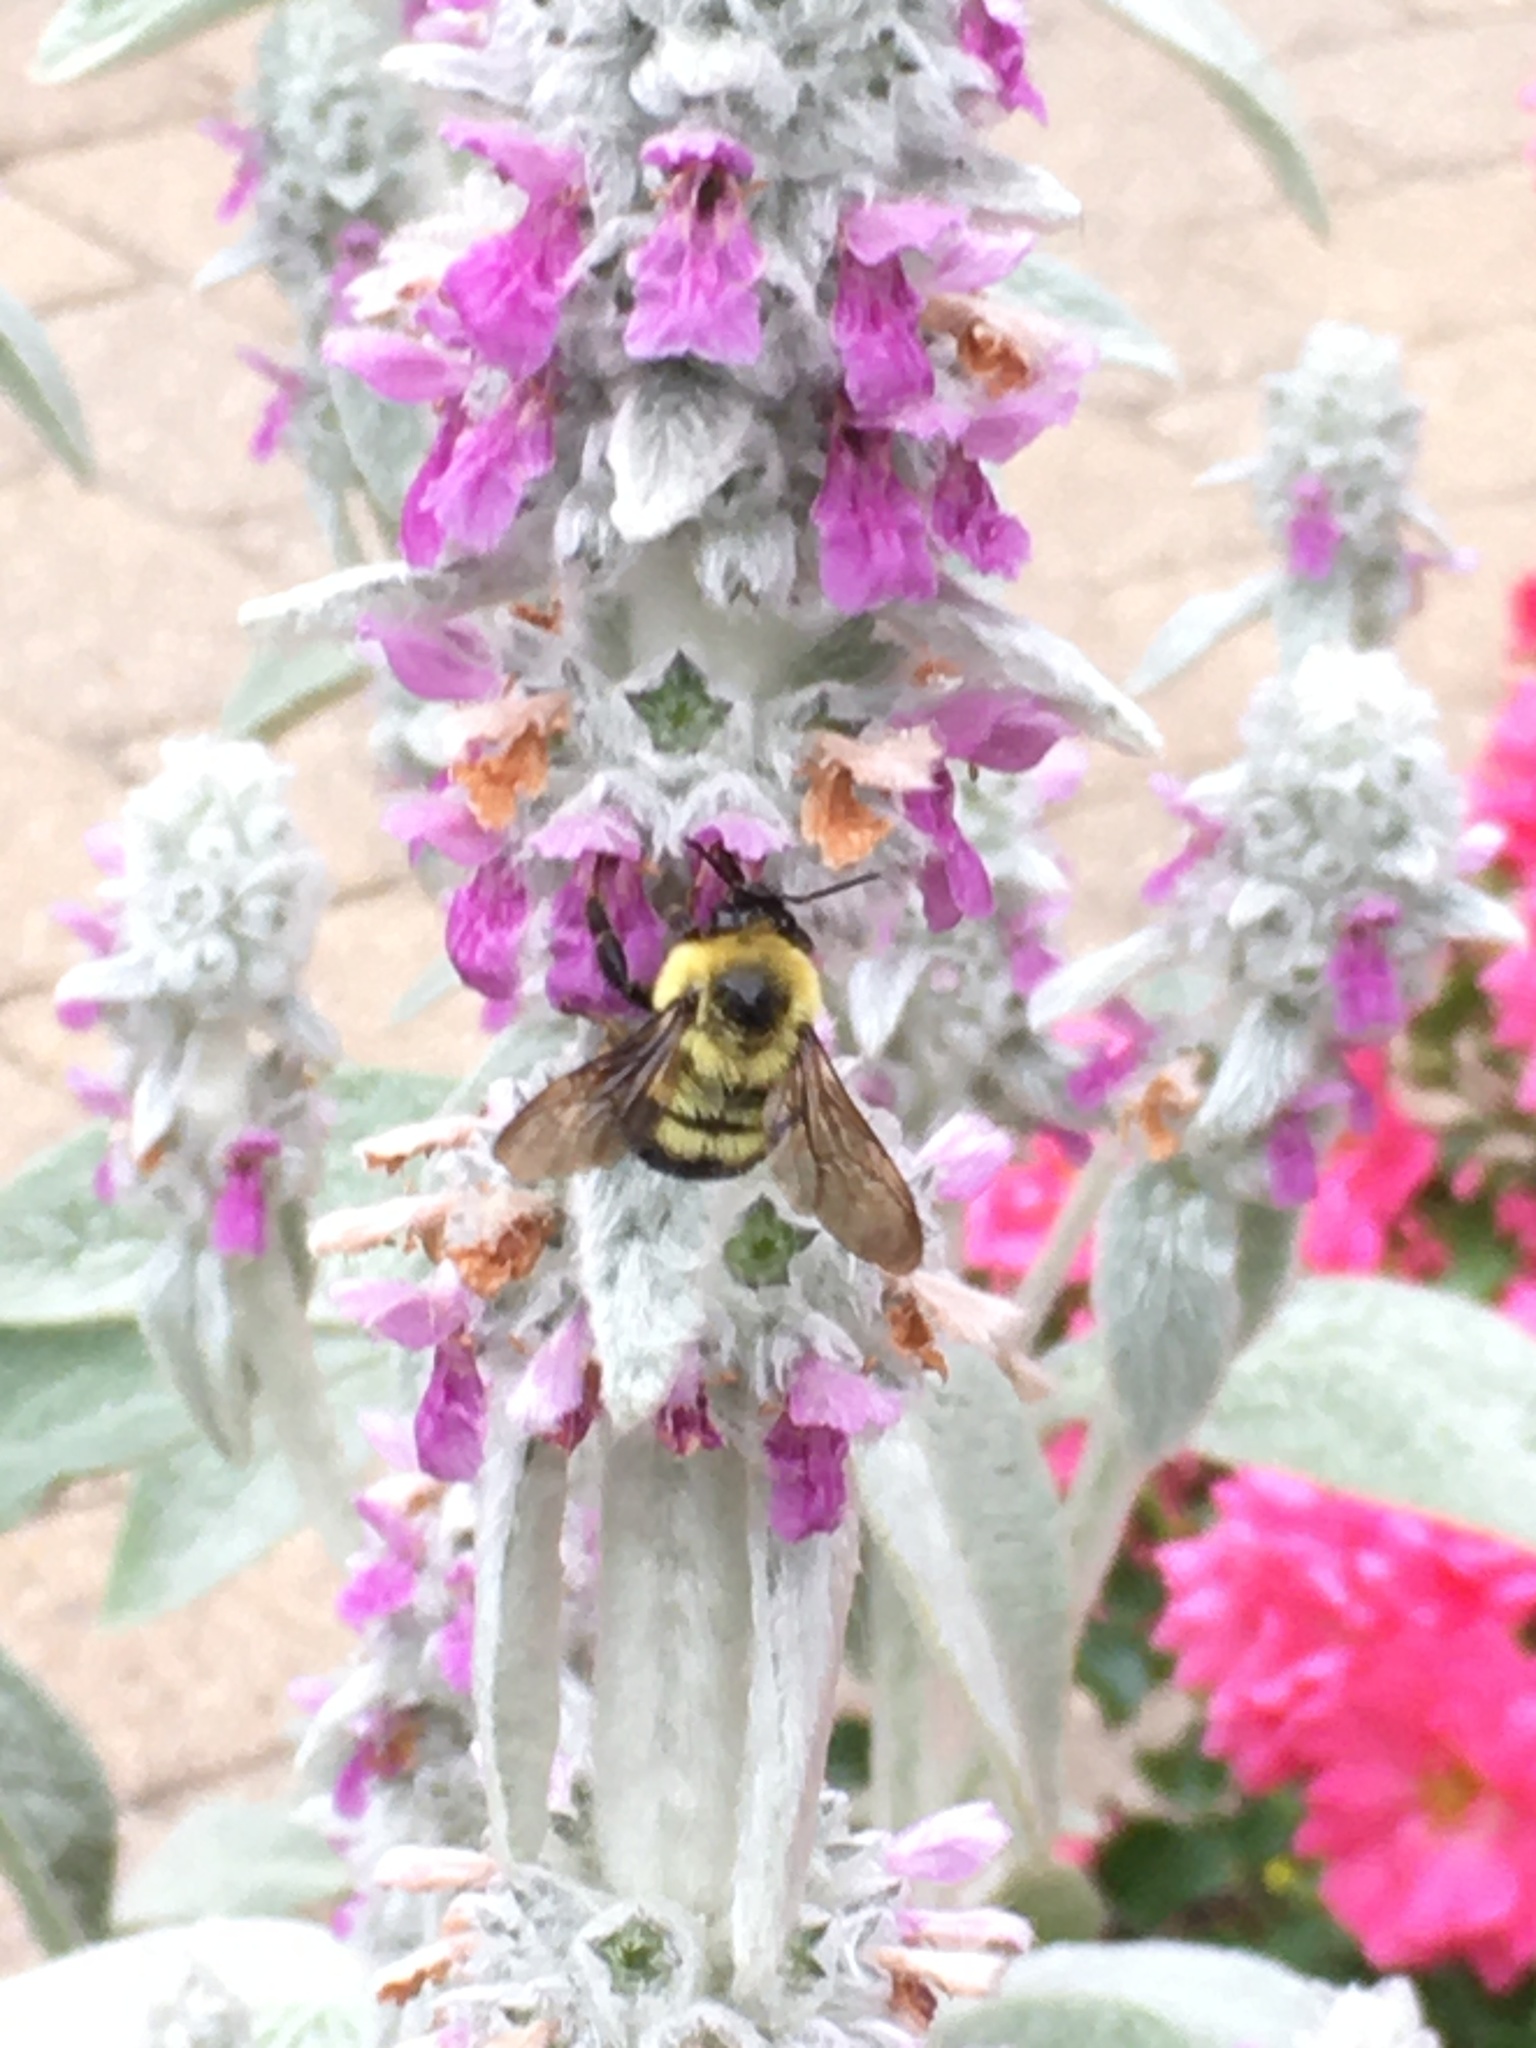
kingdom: Animalia
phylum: Arthropoda
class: Insecta
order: Hymenoptera
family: Apidae
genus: Bombus
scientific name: Bombus bimaculatus
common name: Two-spotted bumble bee
